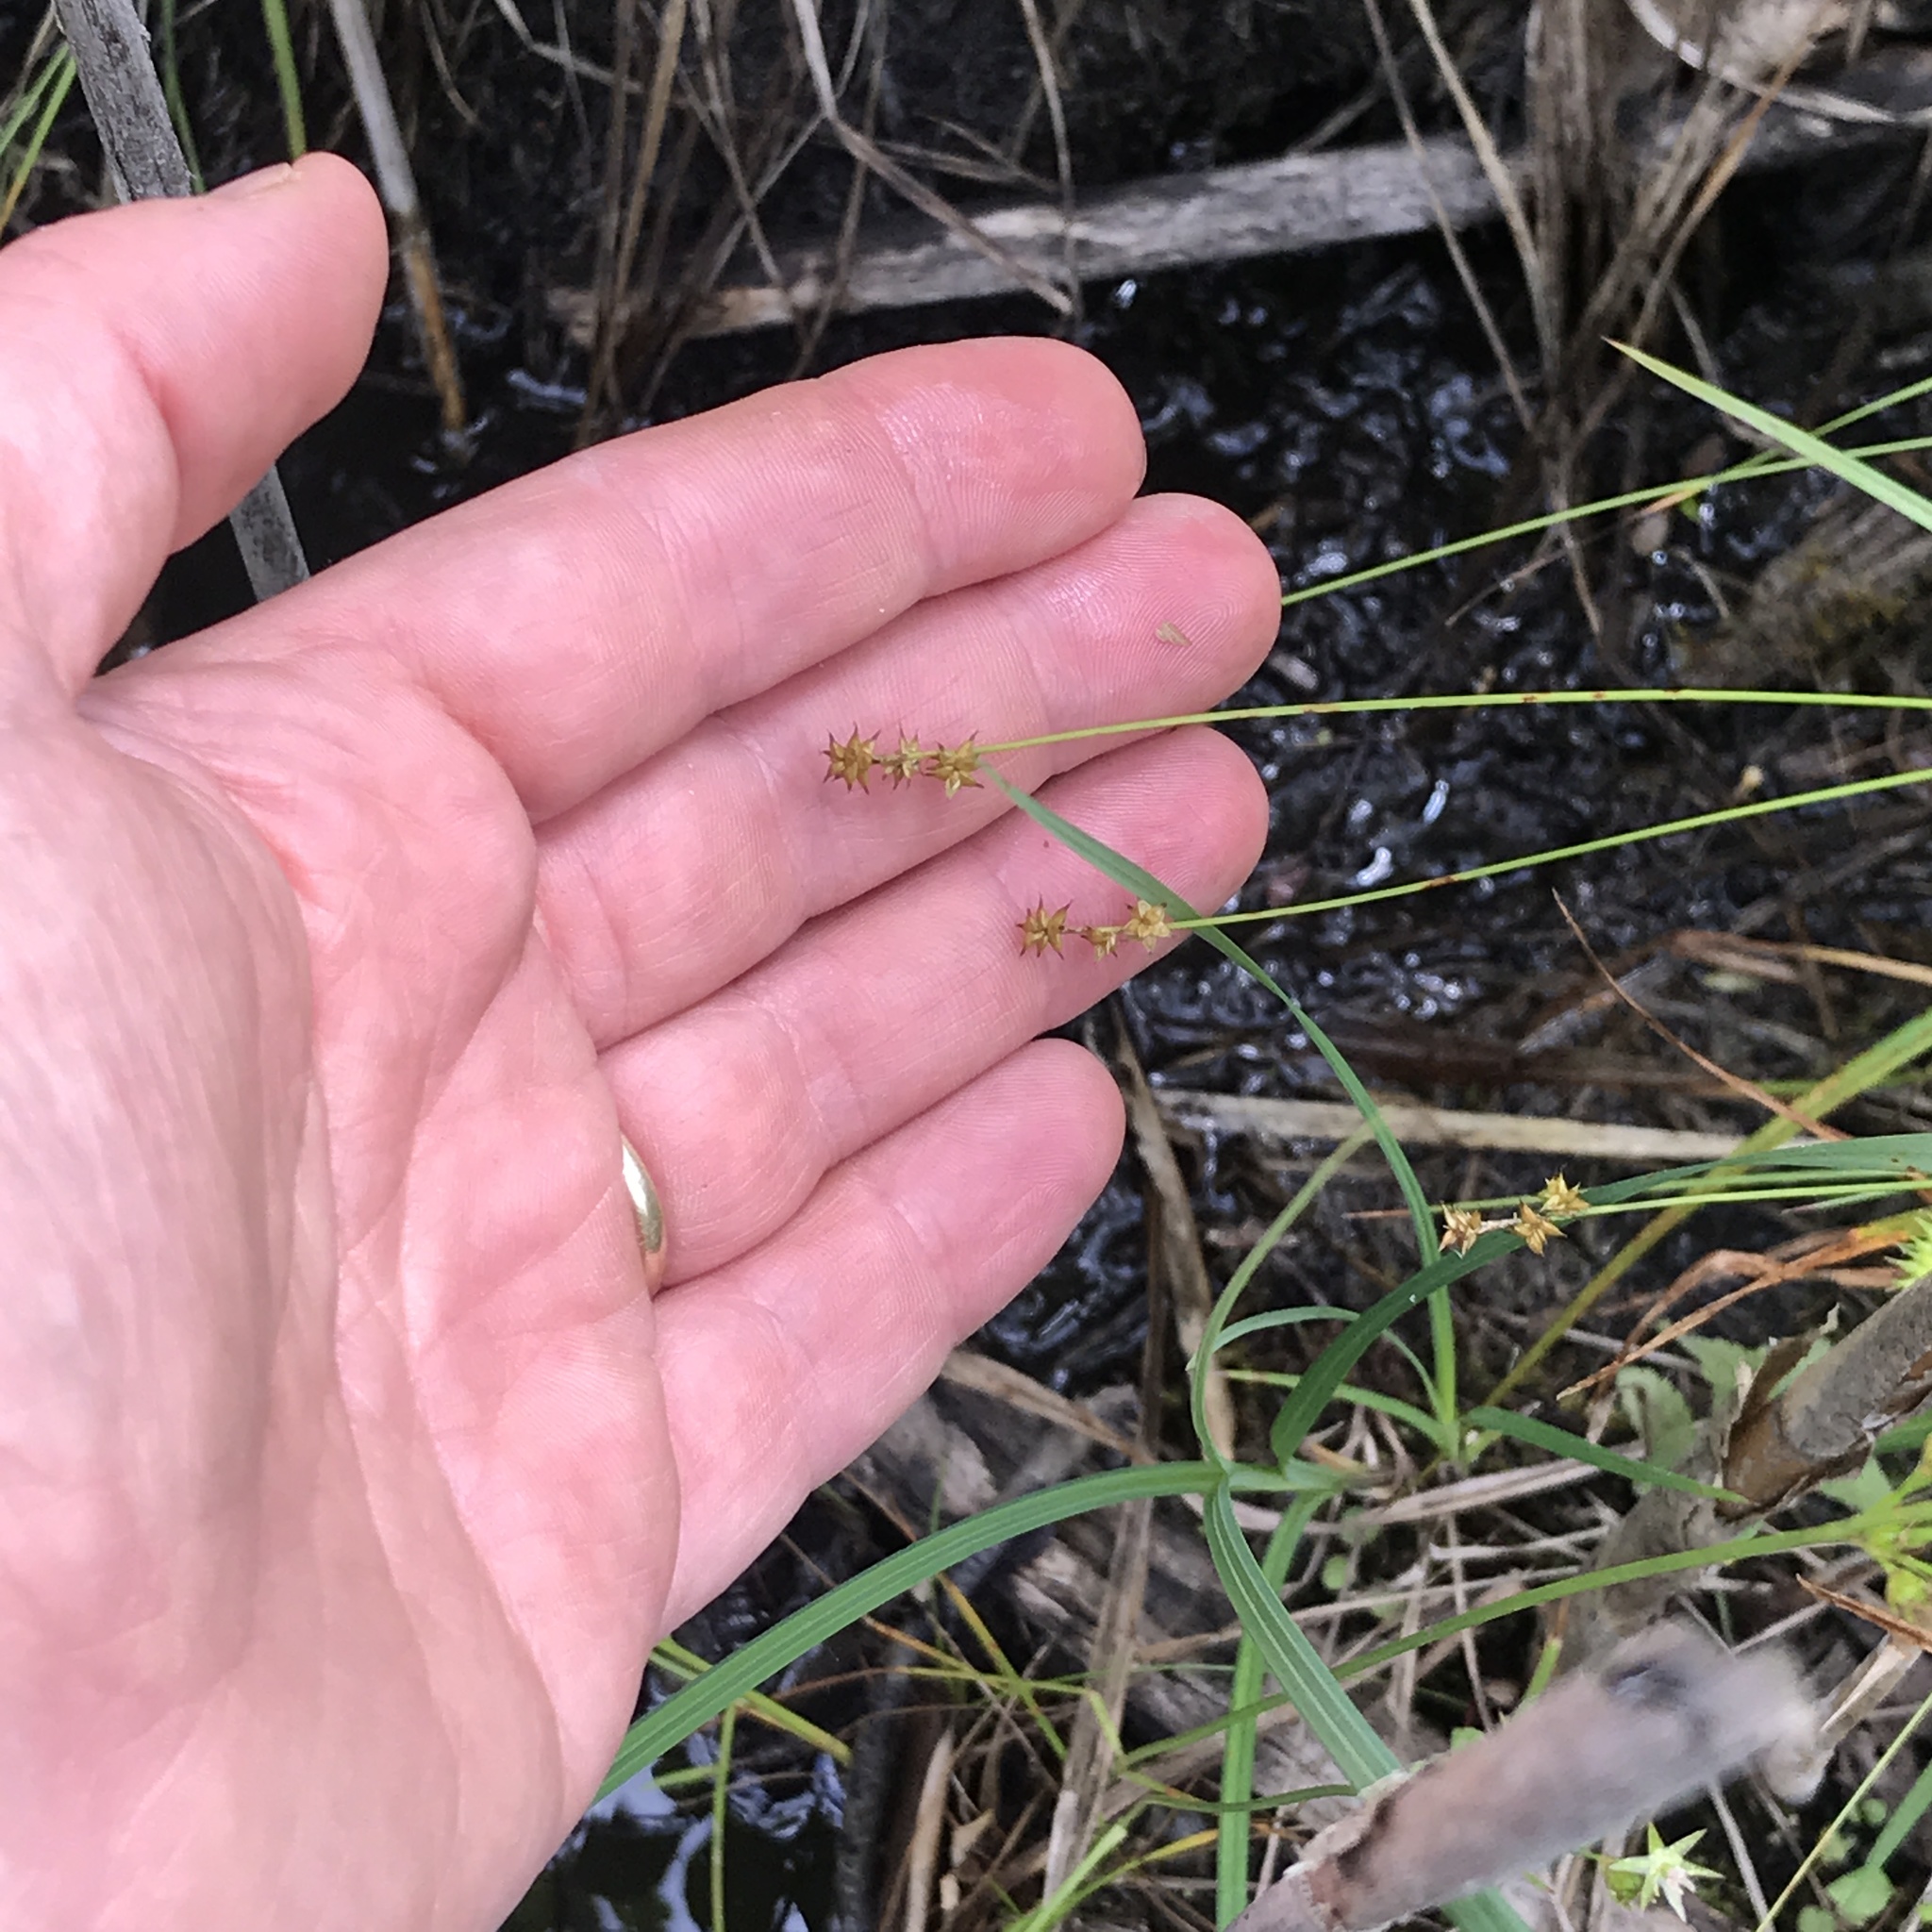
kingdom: Plantae
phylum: Tracheophyta
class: Liliopsida
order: Poales
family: Cyperaceae
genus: Carex
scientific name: Carex interior
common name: Inland sedge
